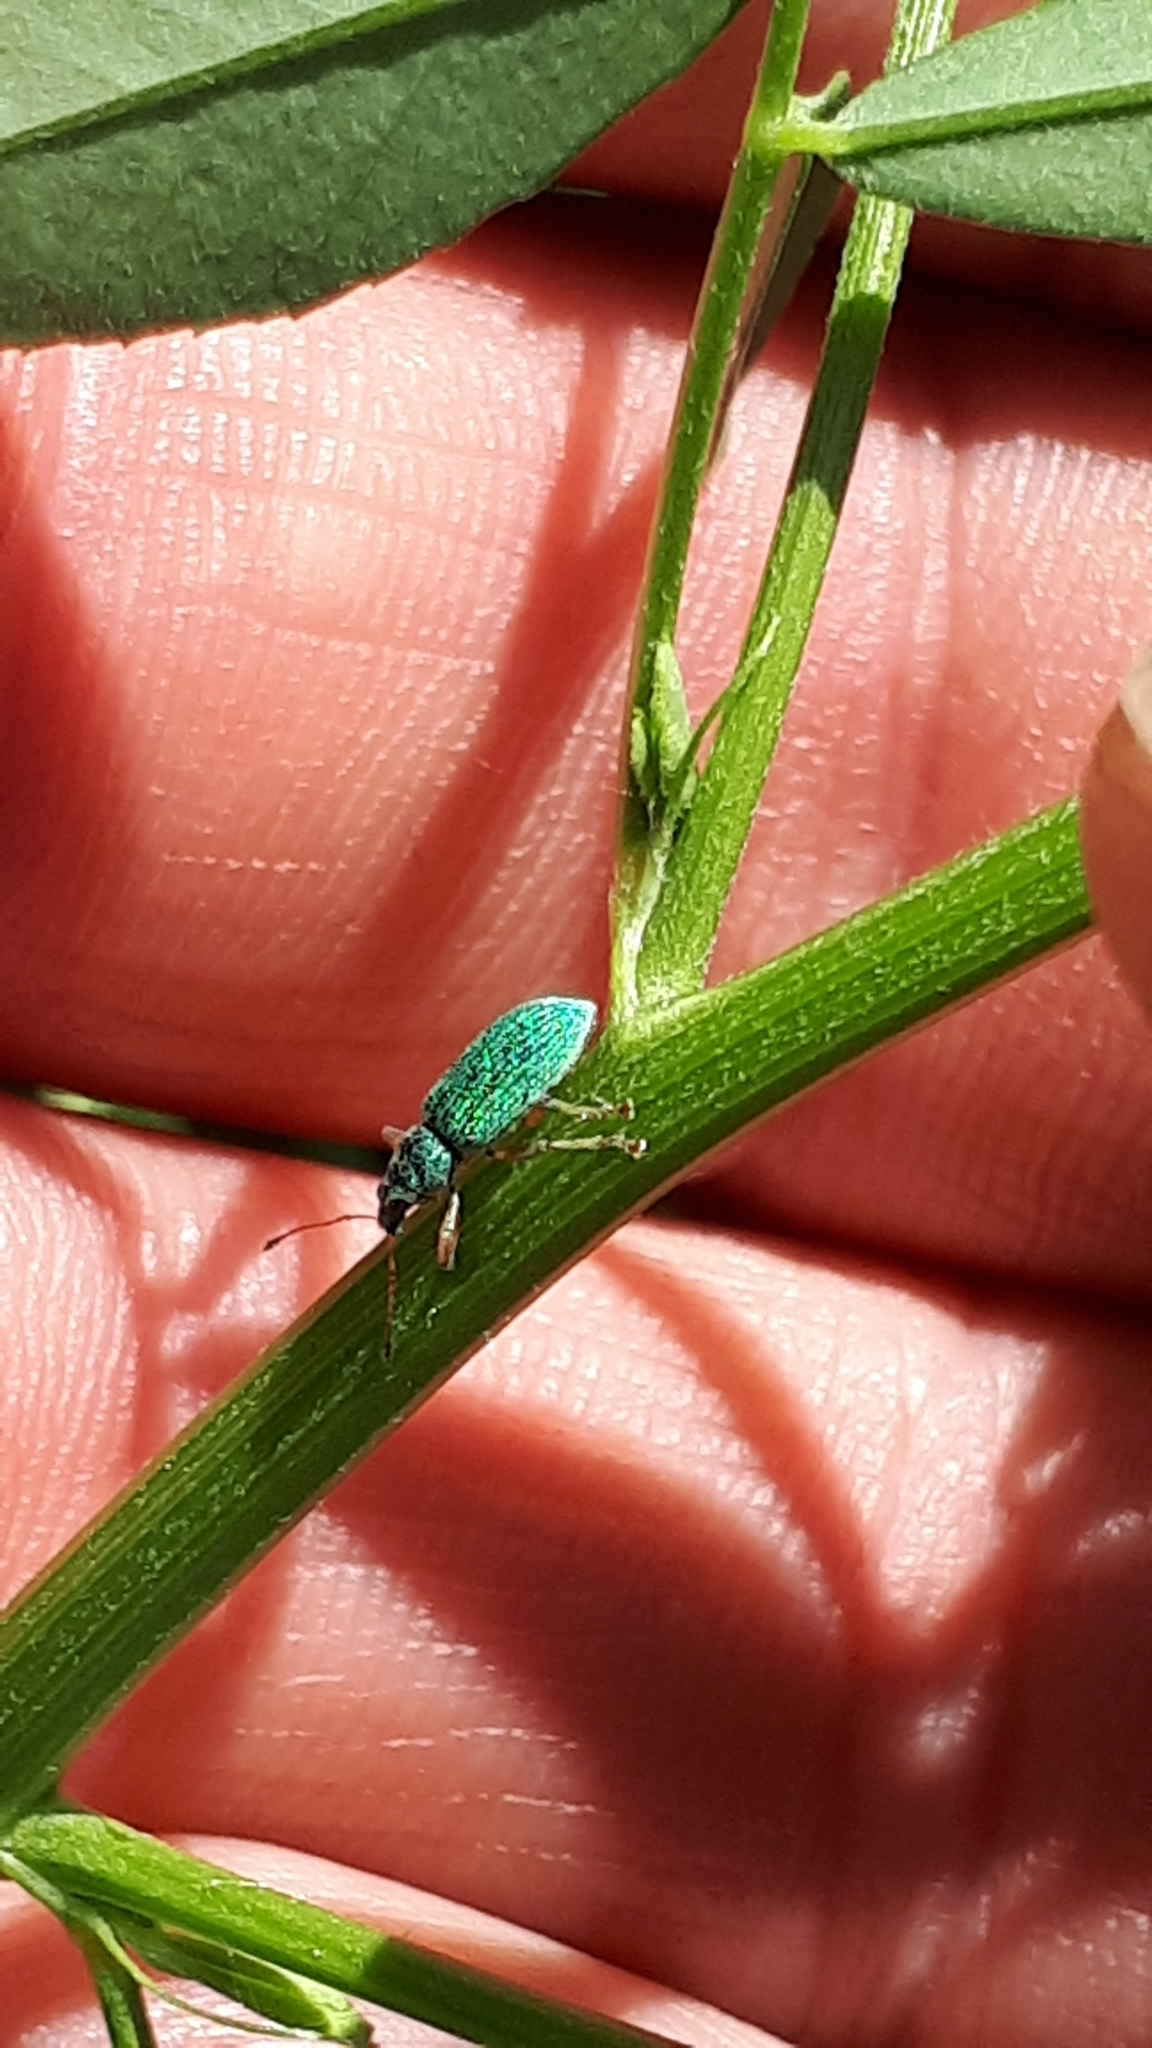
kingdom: Animalia
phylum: Arthropoda
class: Insecta
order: Coleoptera
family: Curculionidae
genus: Polydrusus
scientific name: Polydrusus formosus
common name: Weevil
